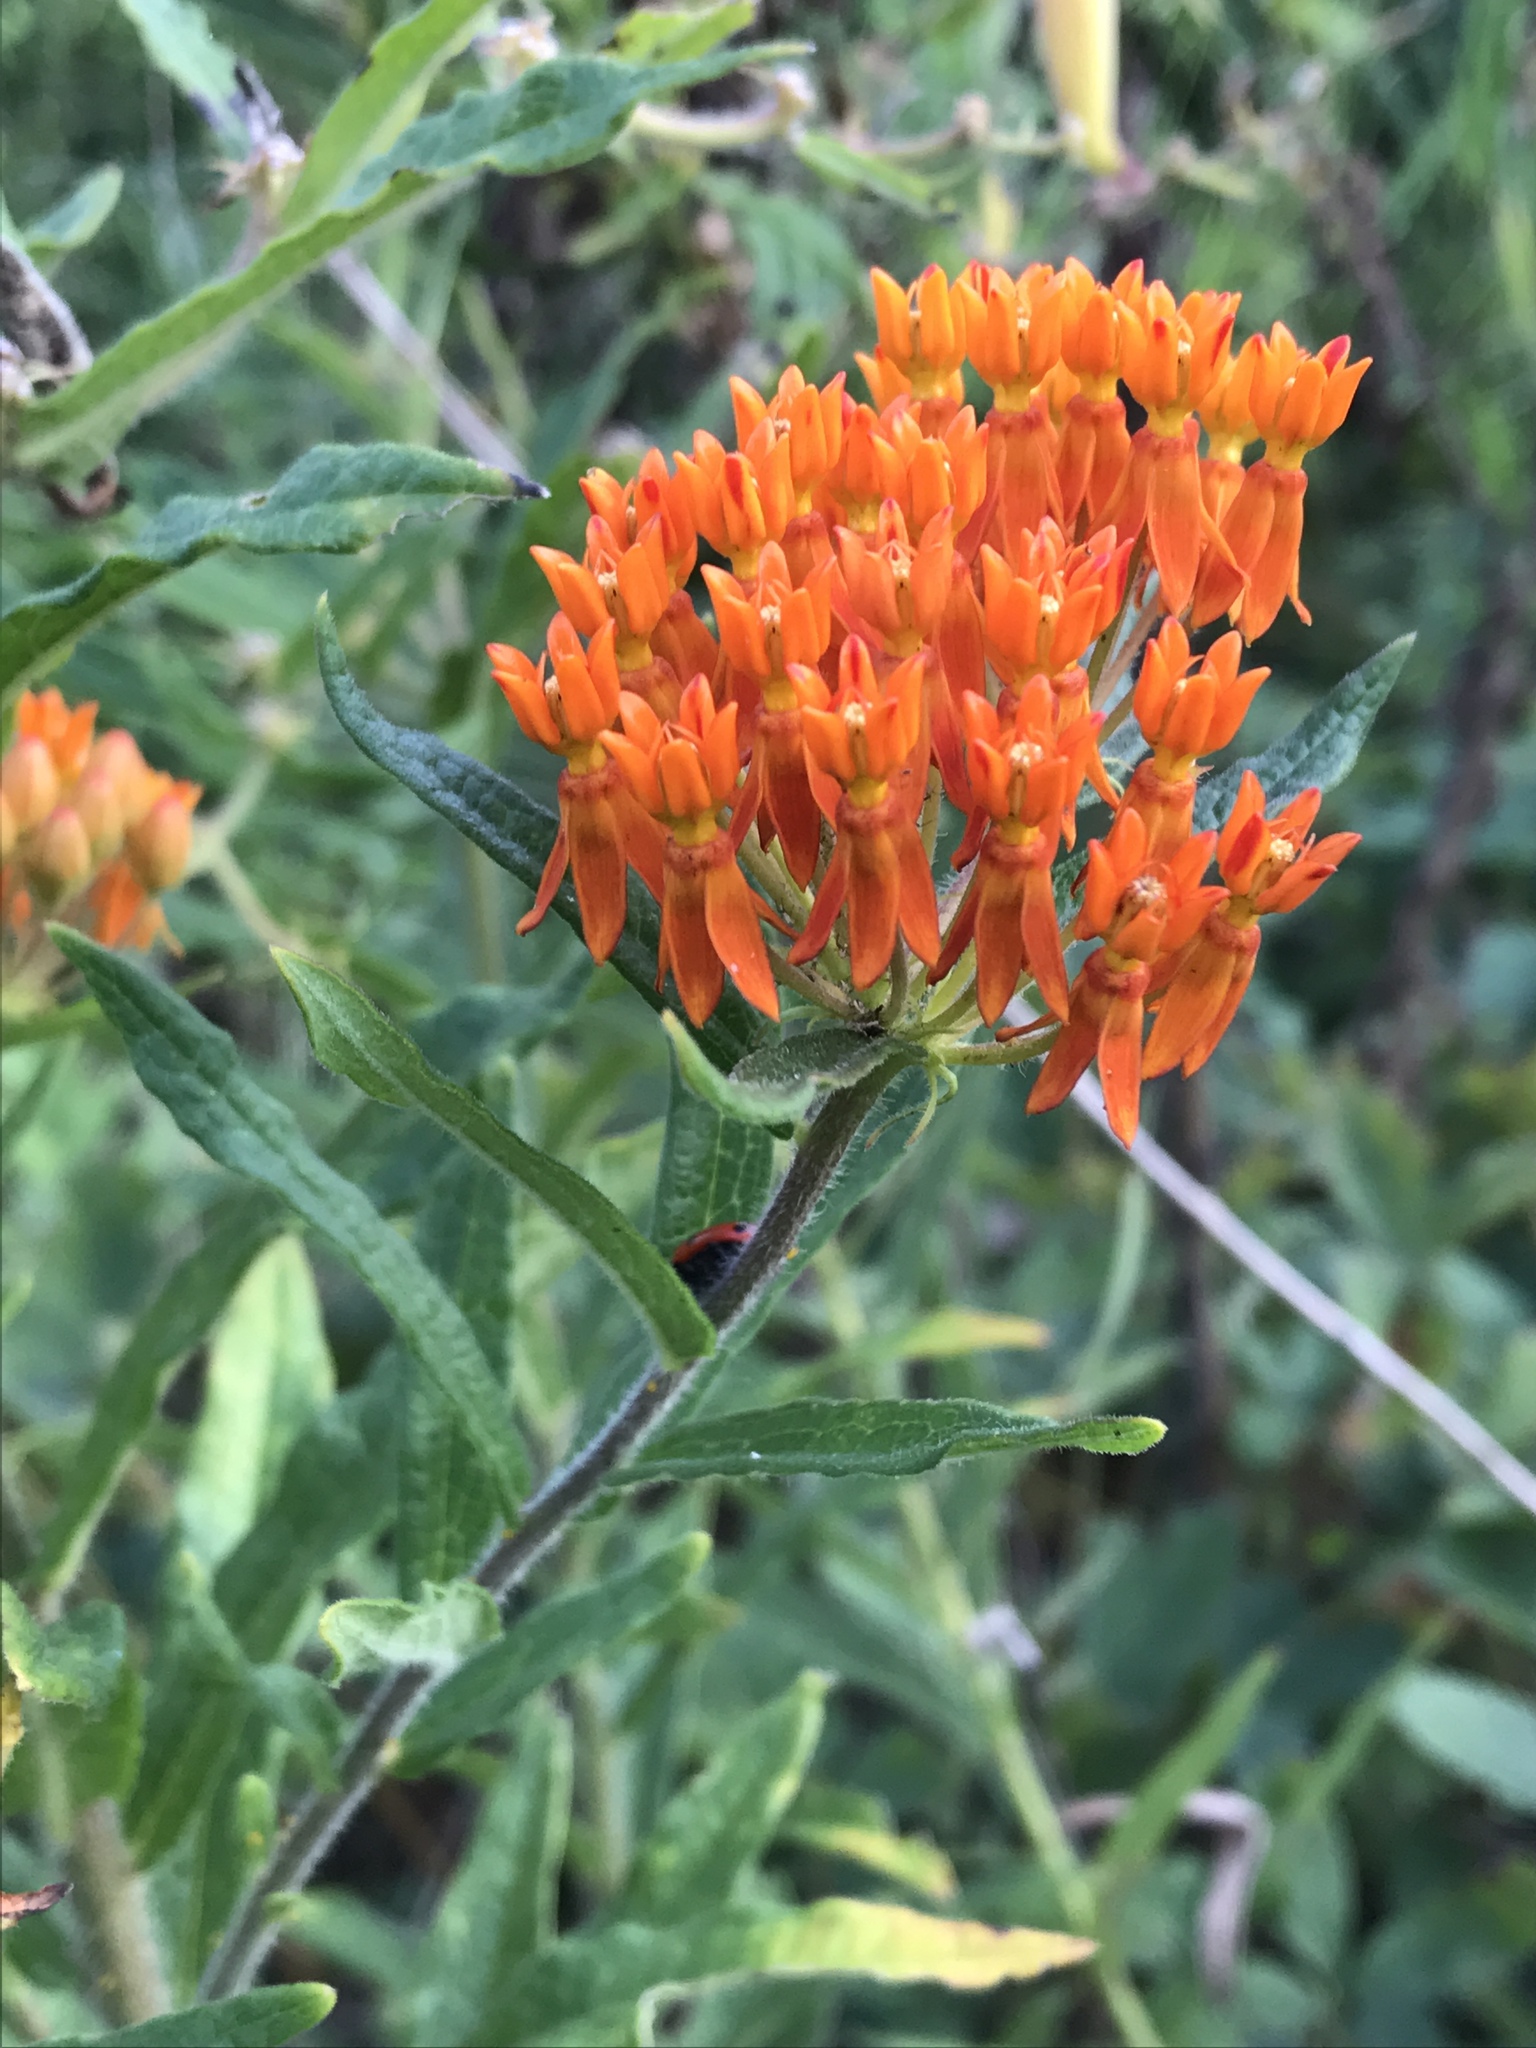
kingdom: Plantae
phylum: Tracheophyta
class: Magnoliopsida
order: Gentianales
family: Apocynaceae
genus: Asclepias
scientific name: Asclepias tuberosa
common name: Butterfly milkweed
